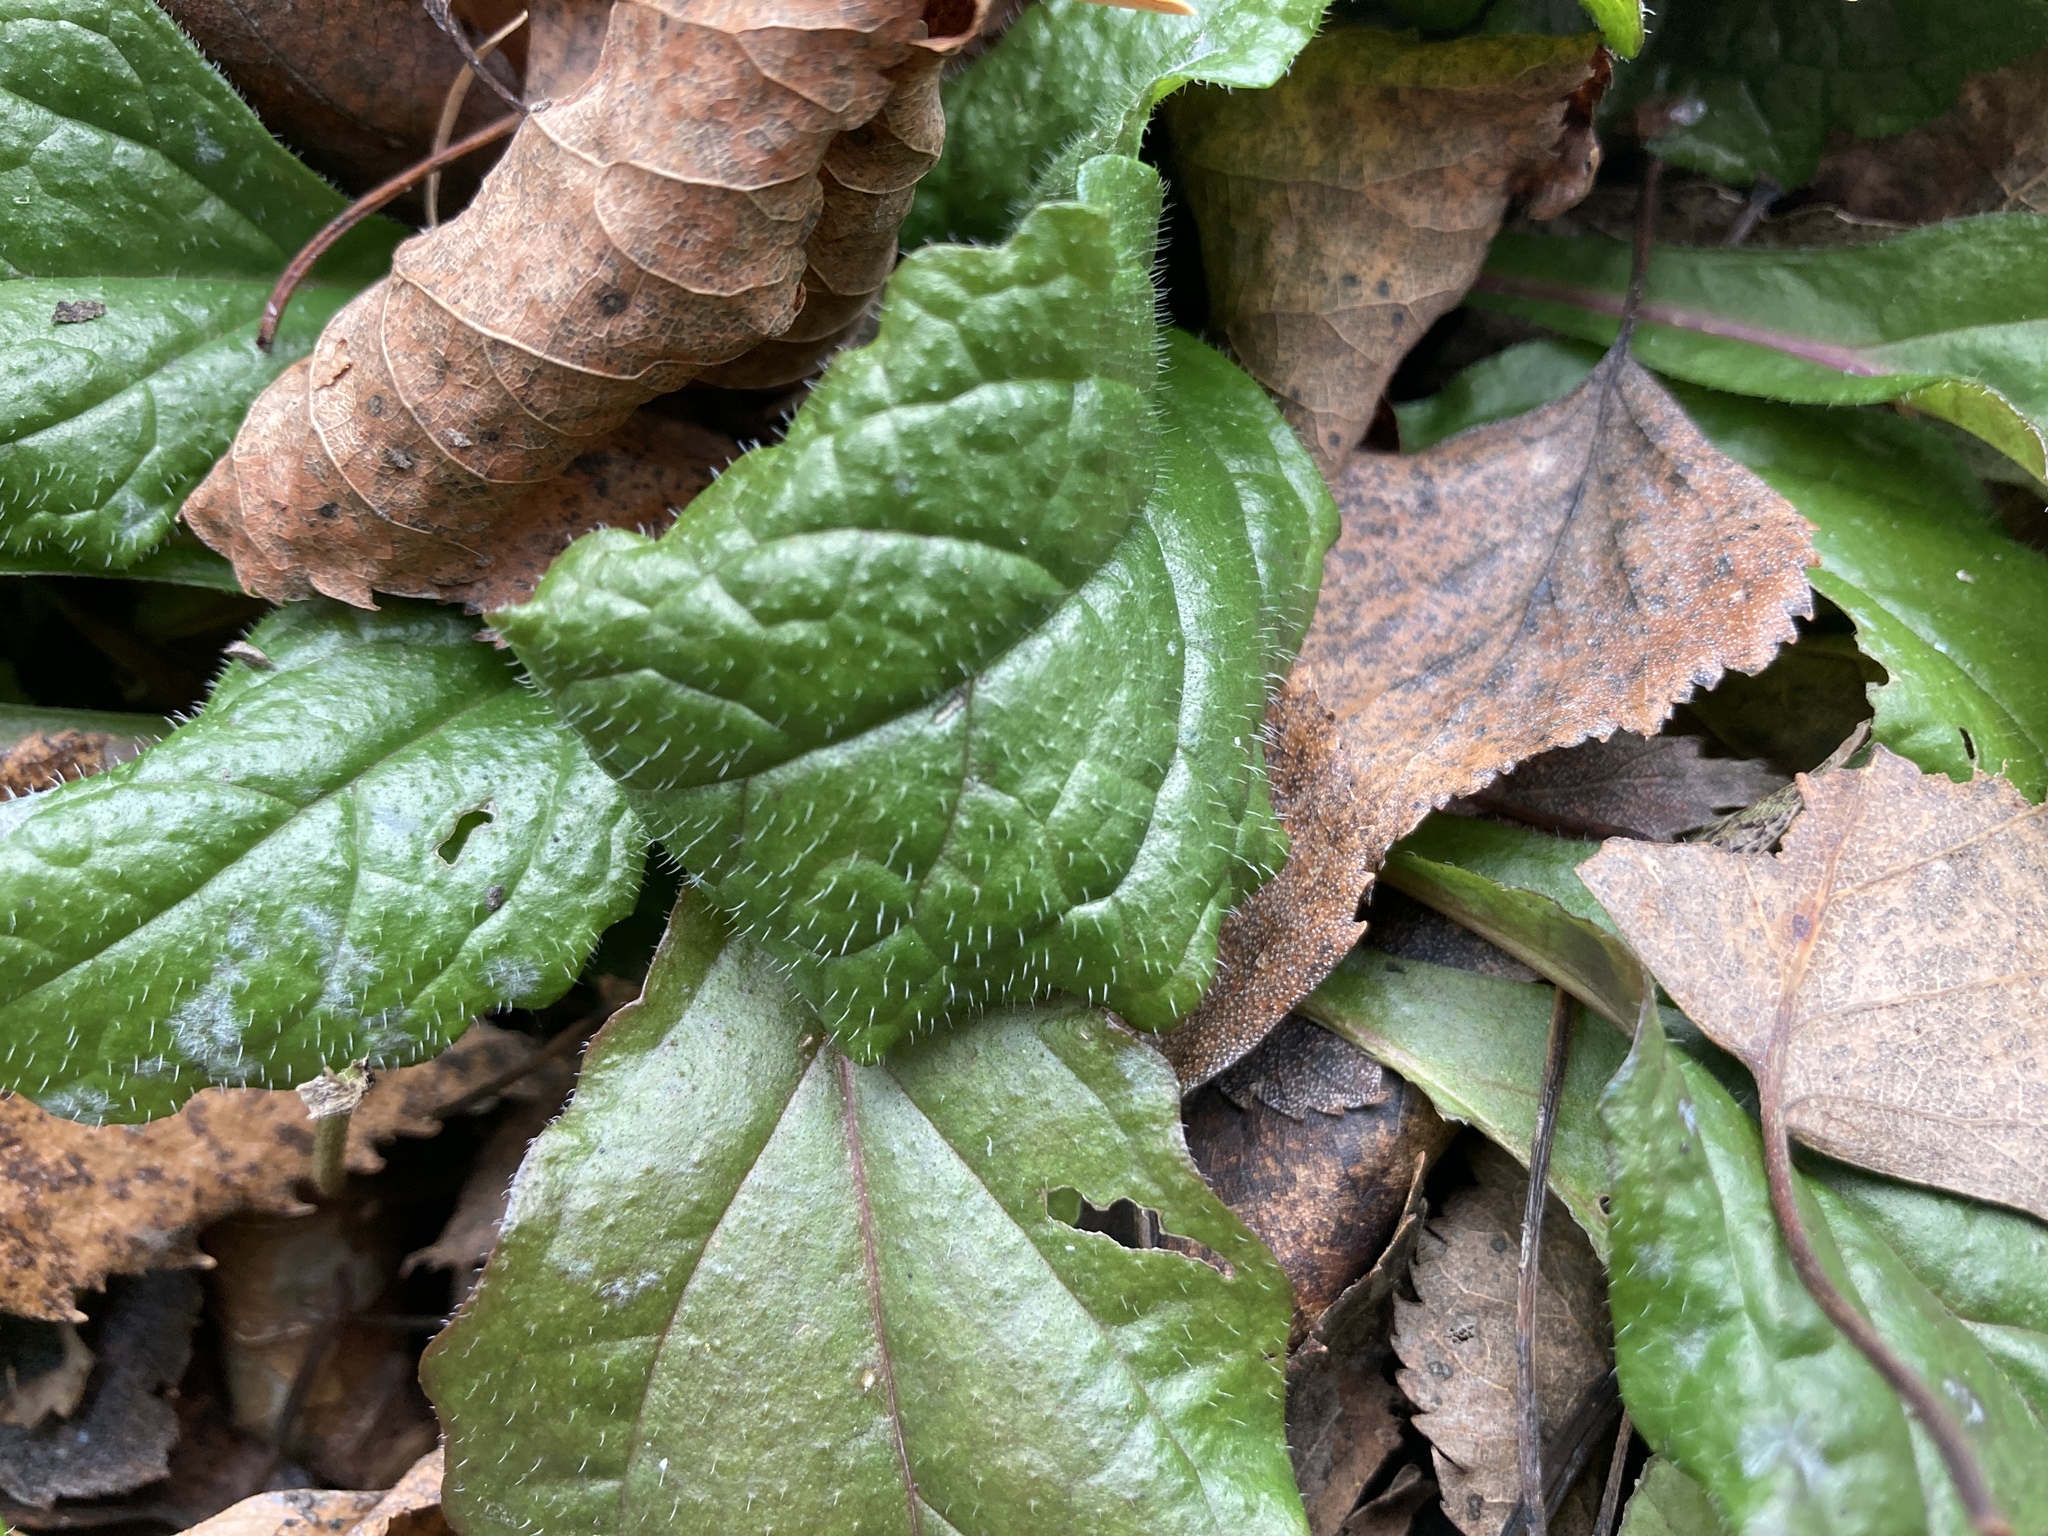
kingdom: Plantae
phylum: Tracheophyta
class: Magnoliopsida
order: Lamiales
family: Lamiaceae
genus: Ajuga
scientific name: Ajuga reptans
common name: Bugle
